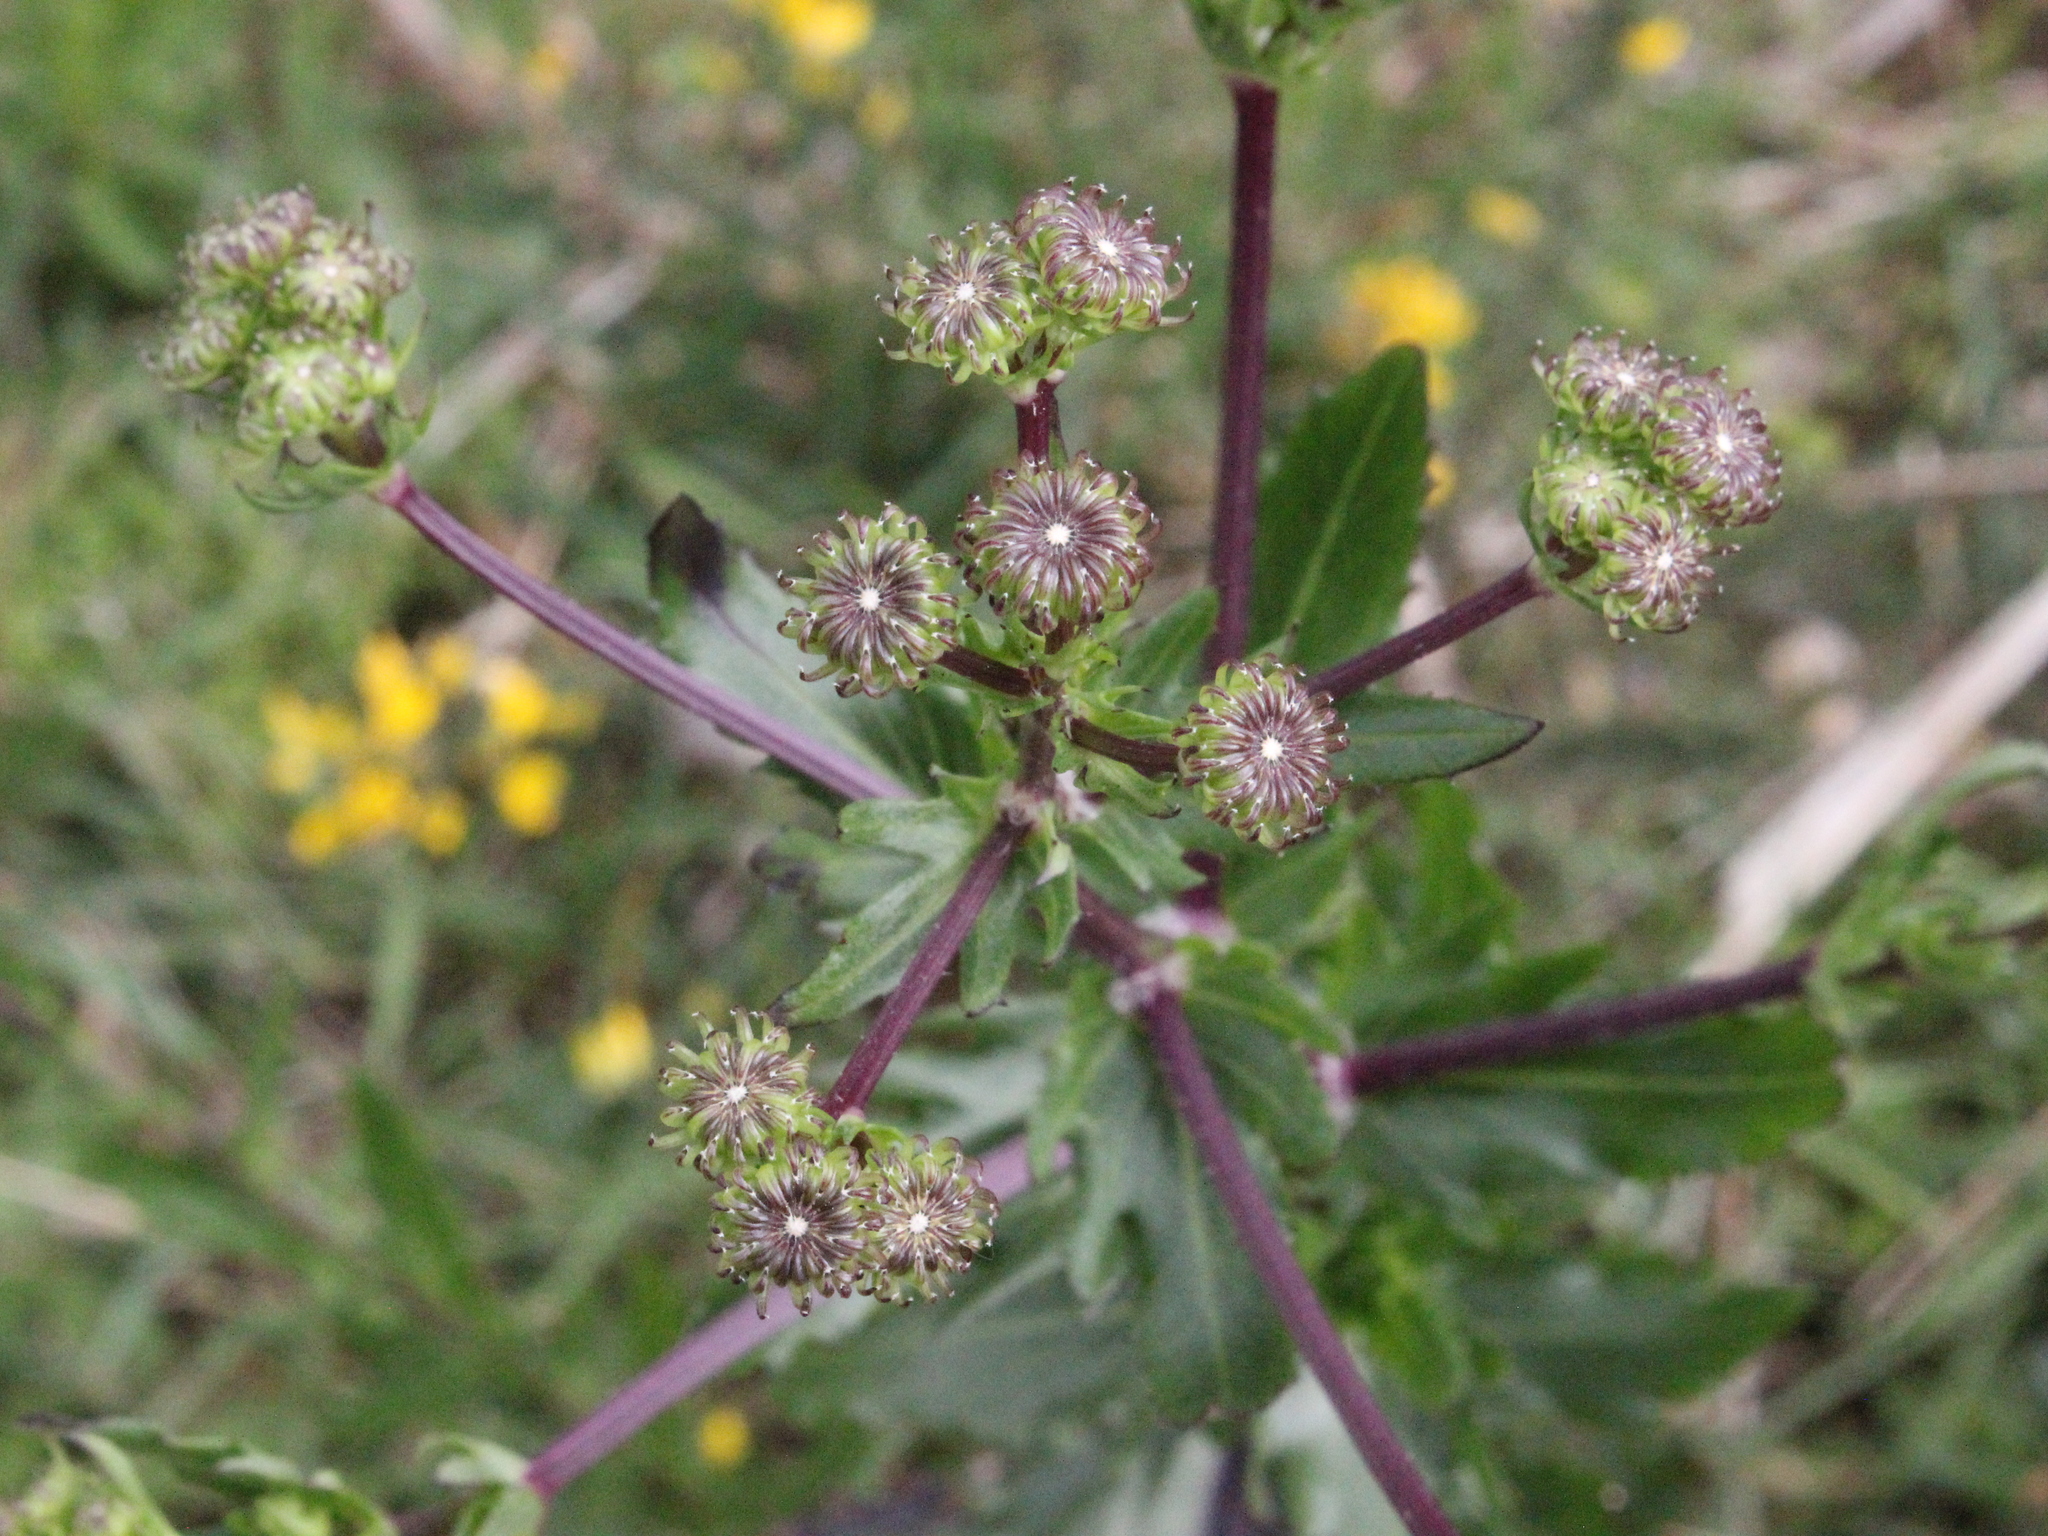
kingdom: Plantae
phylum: Tracheophyta
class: Magnoliopsida
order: Asterales
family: Asteraceae
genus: Senecio
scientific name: Senecio glastifolius
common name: Woad-leaved ragwort
